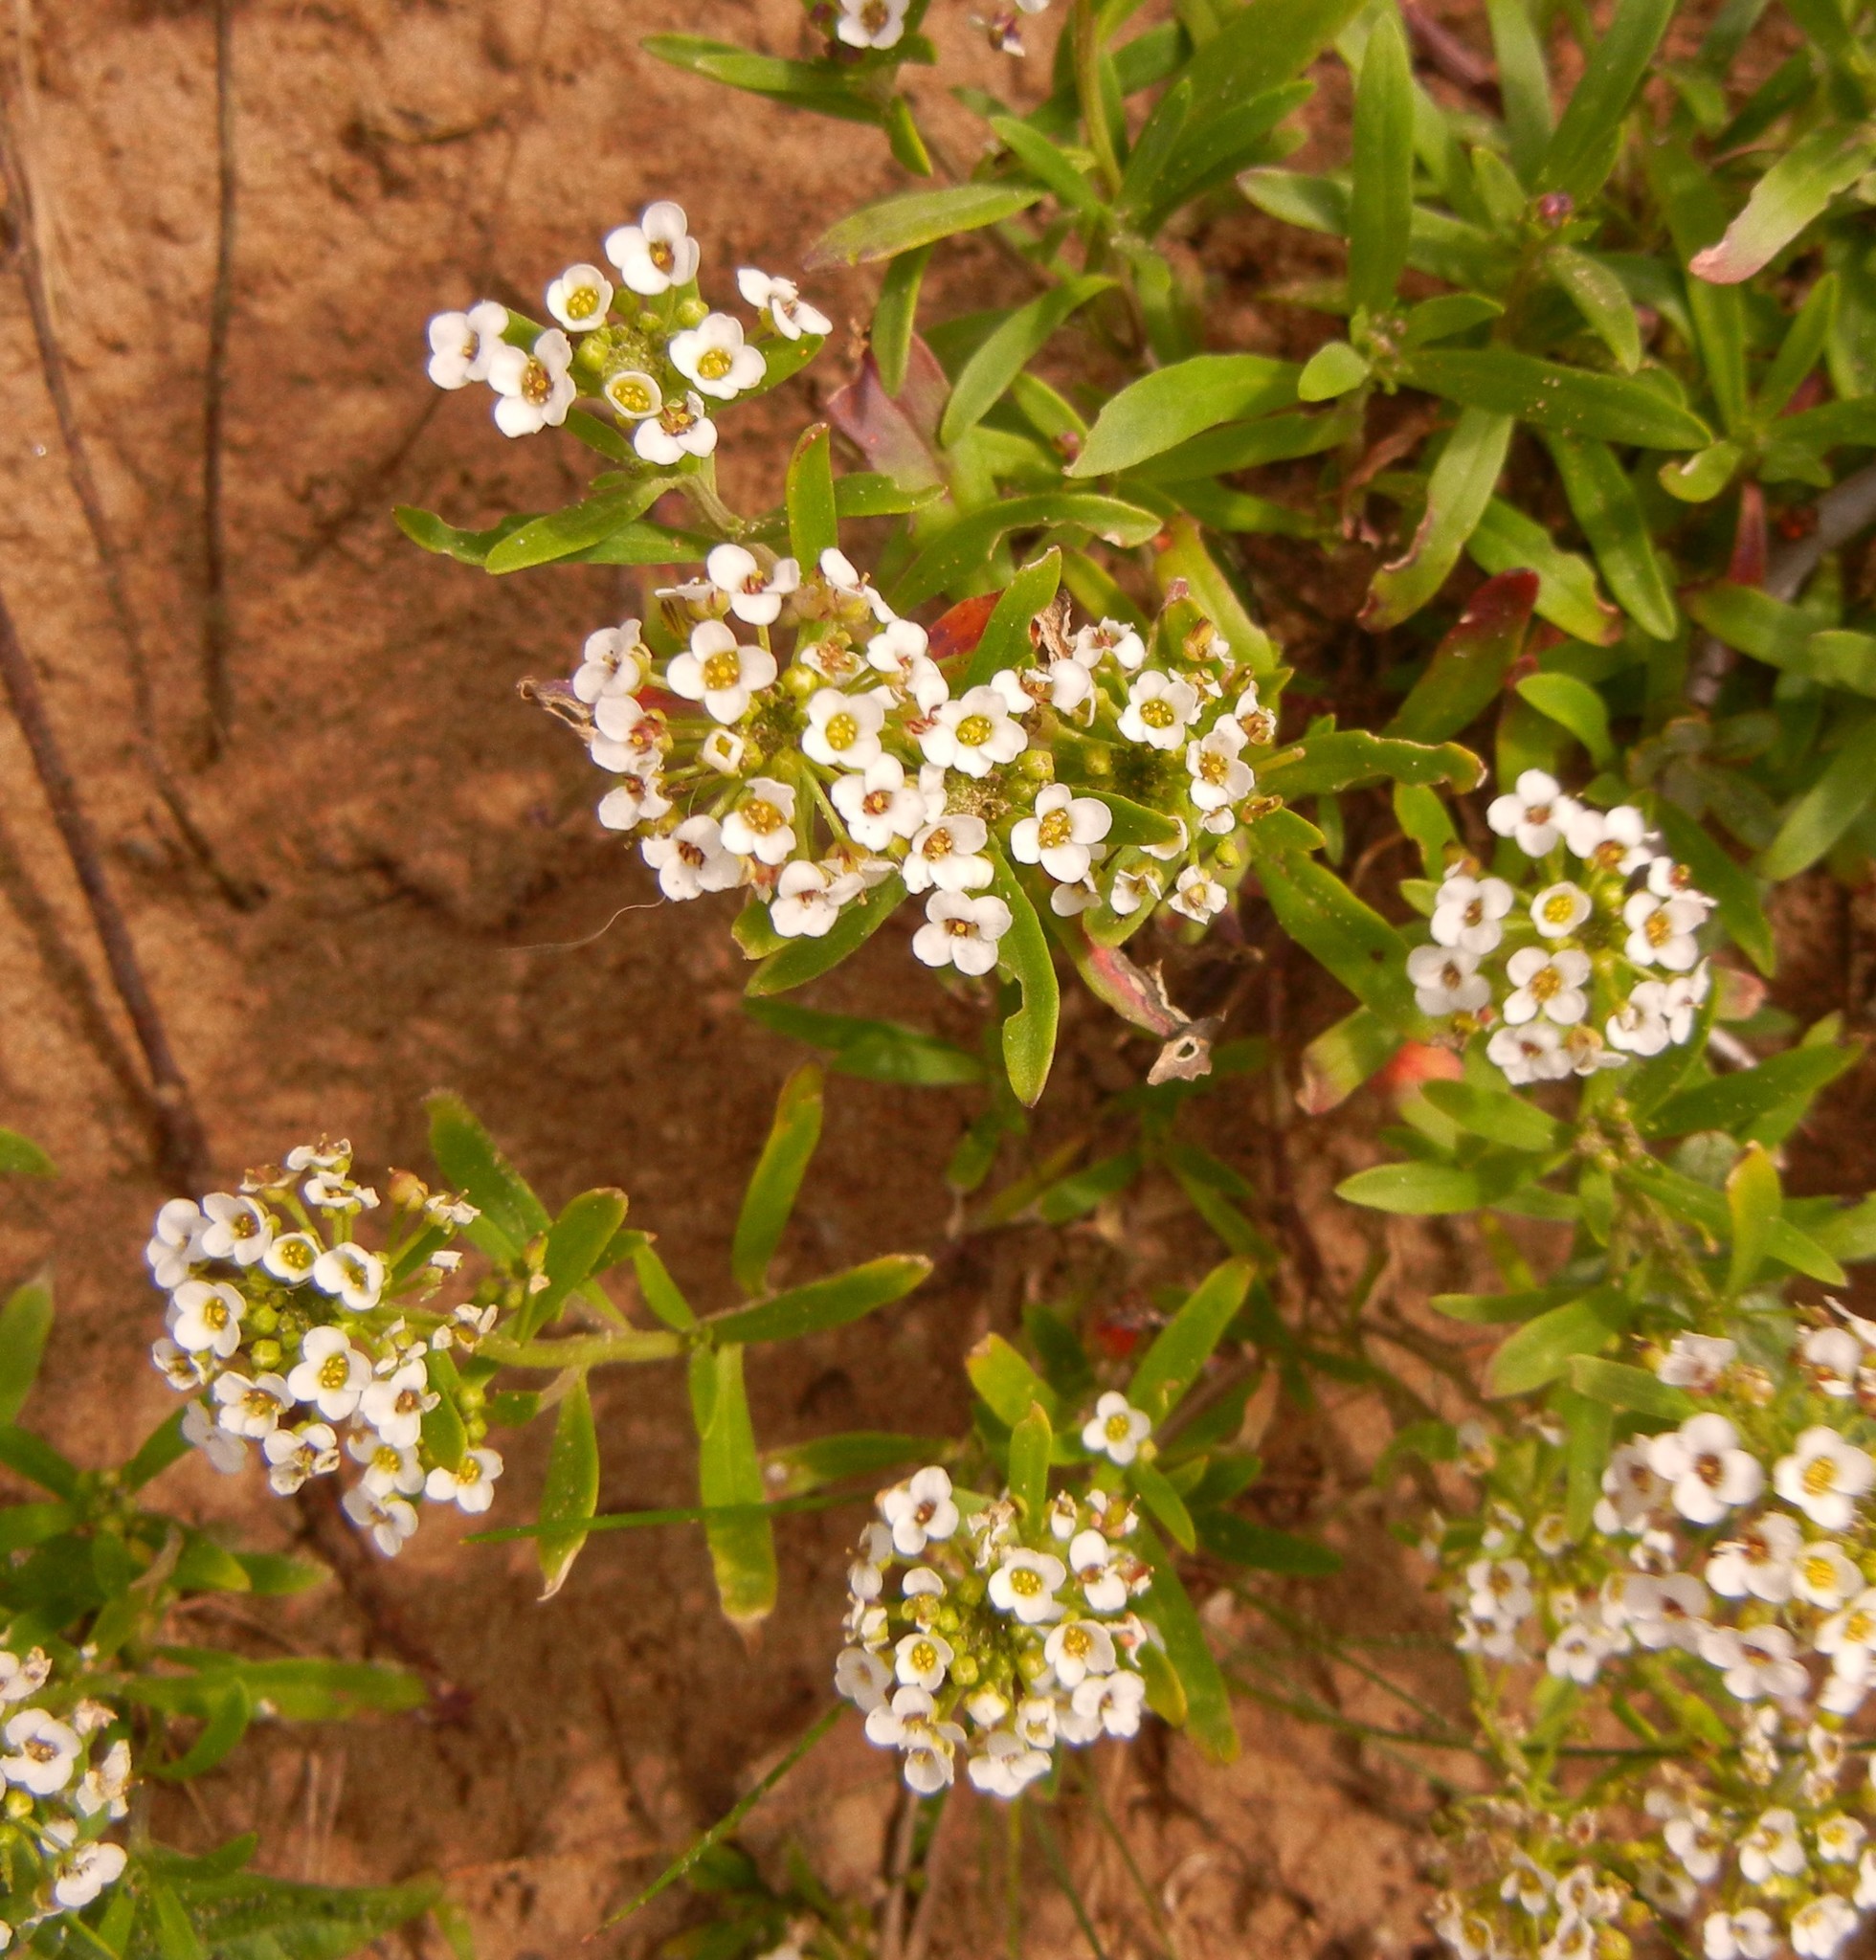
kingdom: Plantae
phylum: Tracheophyta
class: Magnoliopsida
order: Brassicales
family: Brassicaceae
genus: Lobularia
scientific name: Lobularia maritima
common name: Sweet alison
